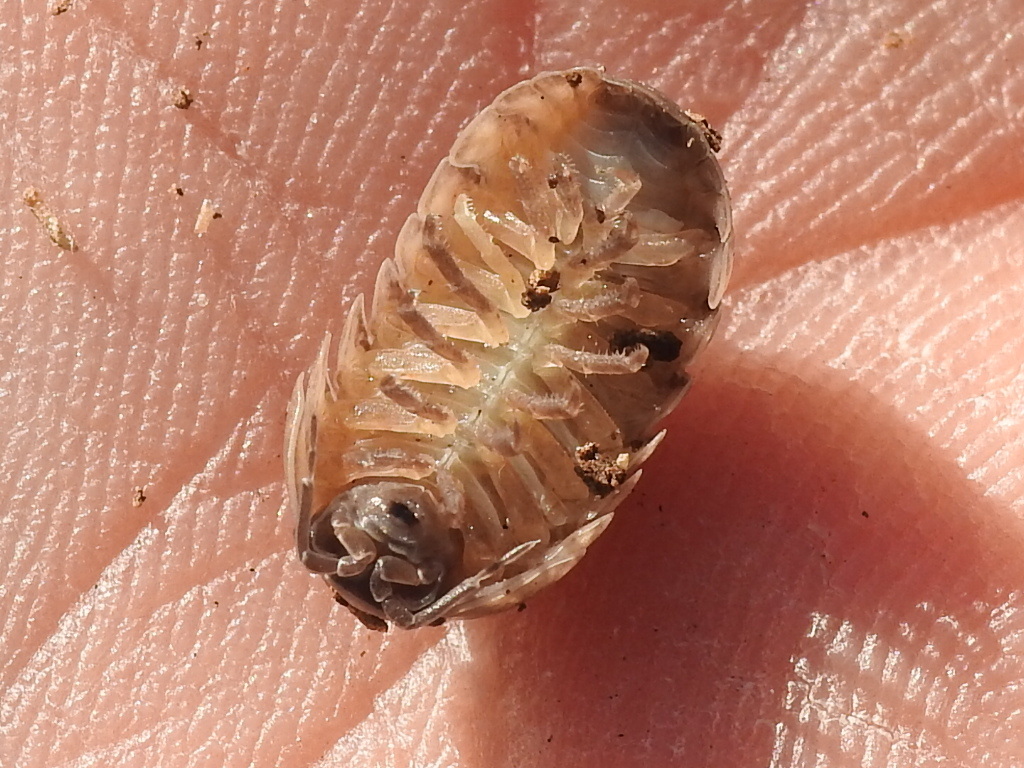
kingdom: Animalia
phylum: Arthropoda
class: Malacostraca
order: Isopoda
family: Armadillidiidae
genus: Armadillidium
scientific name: Armadillidium vulgare
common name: Common pill woodlouse
